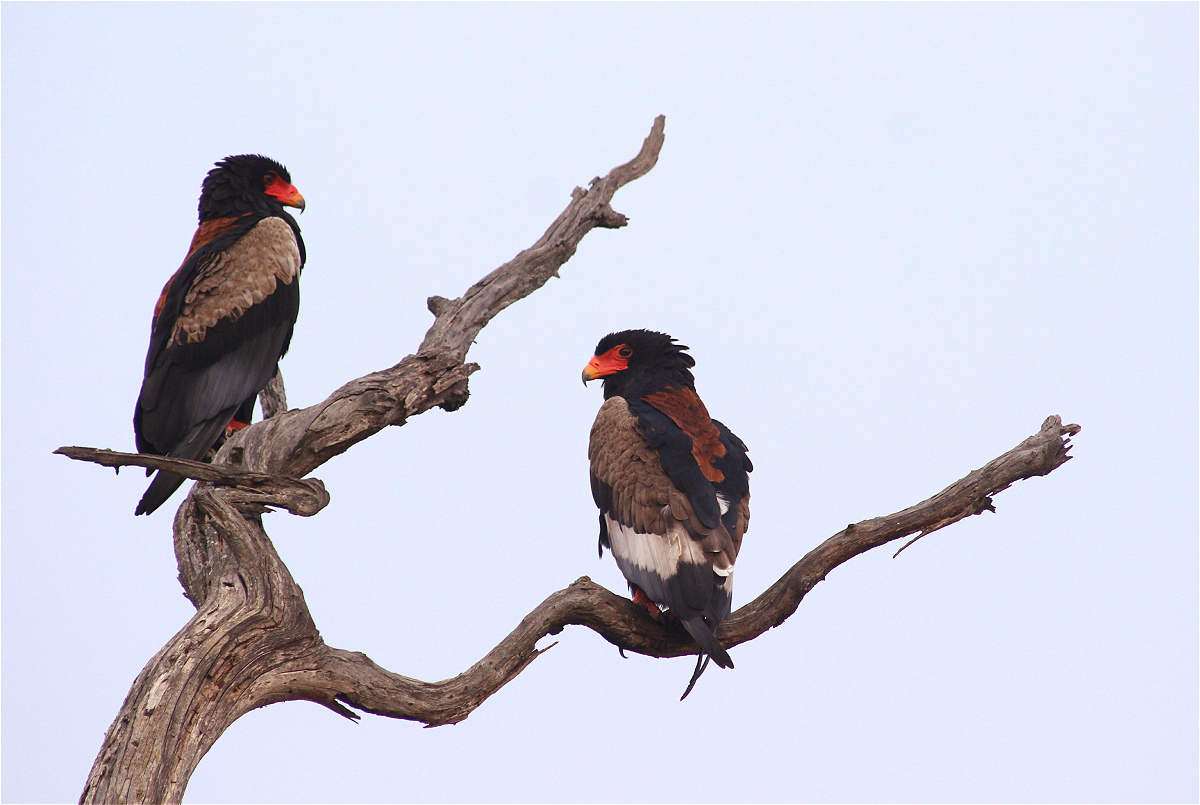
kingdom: Animalia
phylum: Chordata
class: Aves
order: Accipitriformes
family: Accipitridae
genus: Terathopius
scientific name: Terathopius ecaudatus
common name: Bateleur
